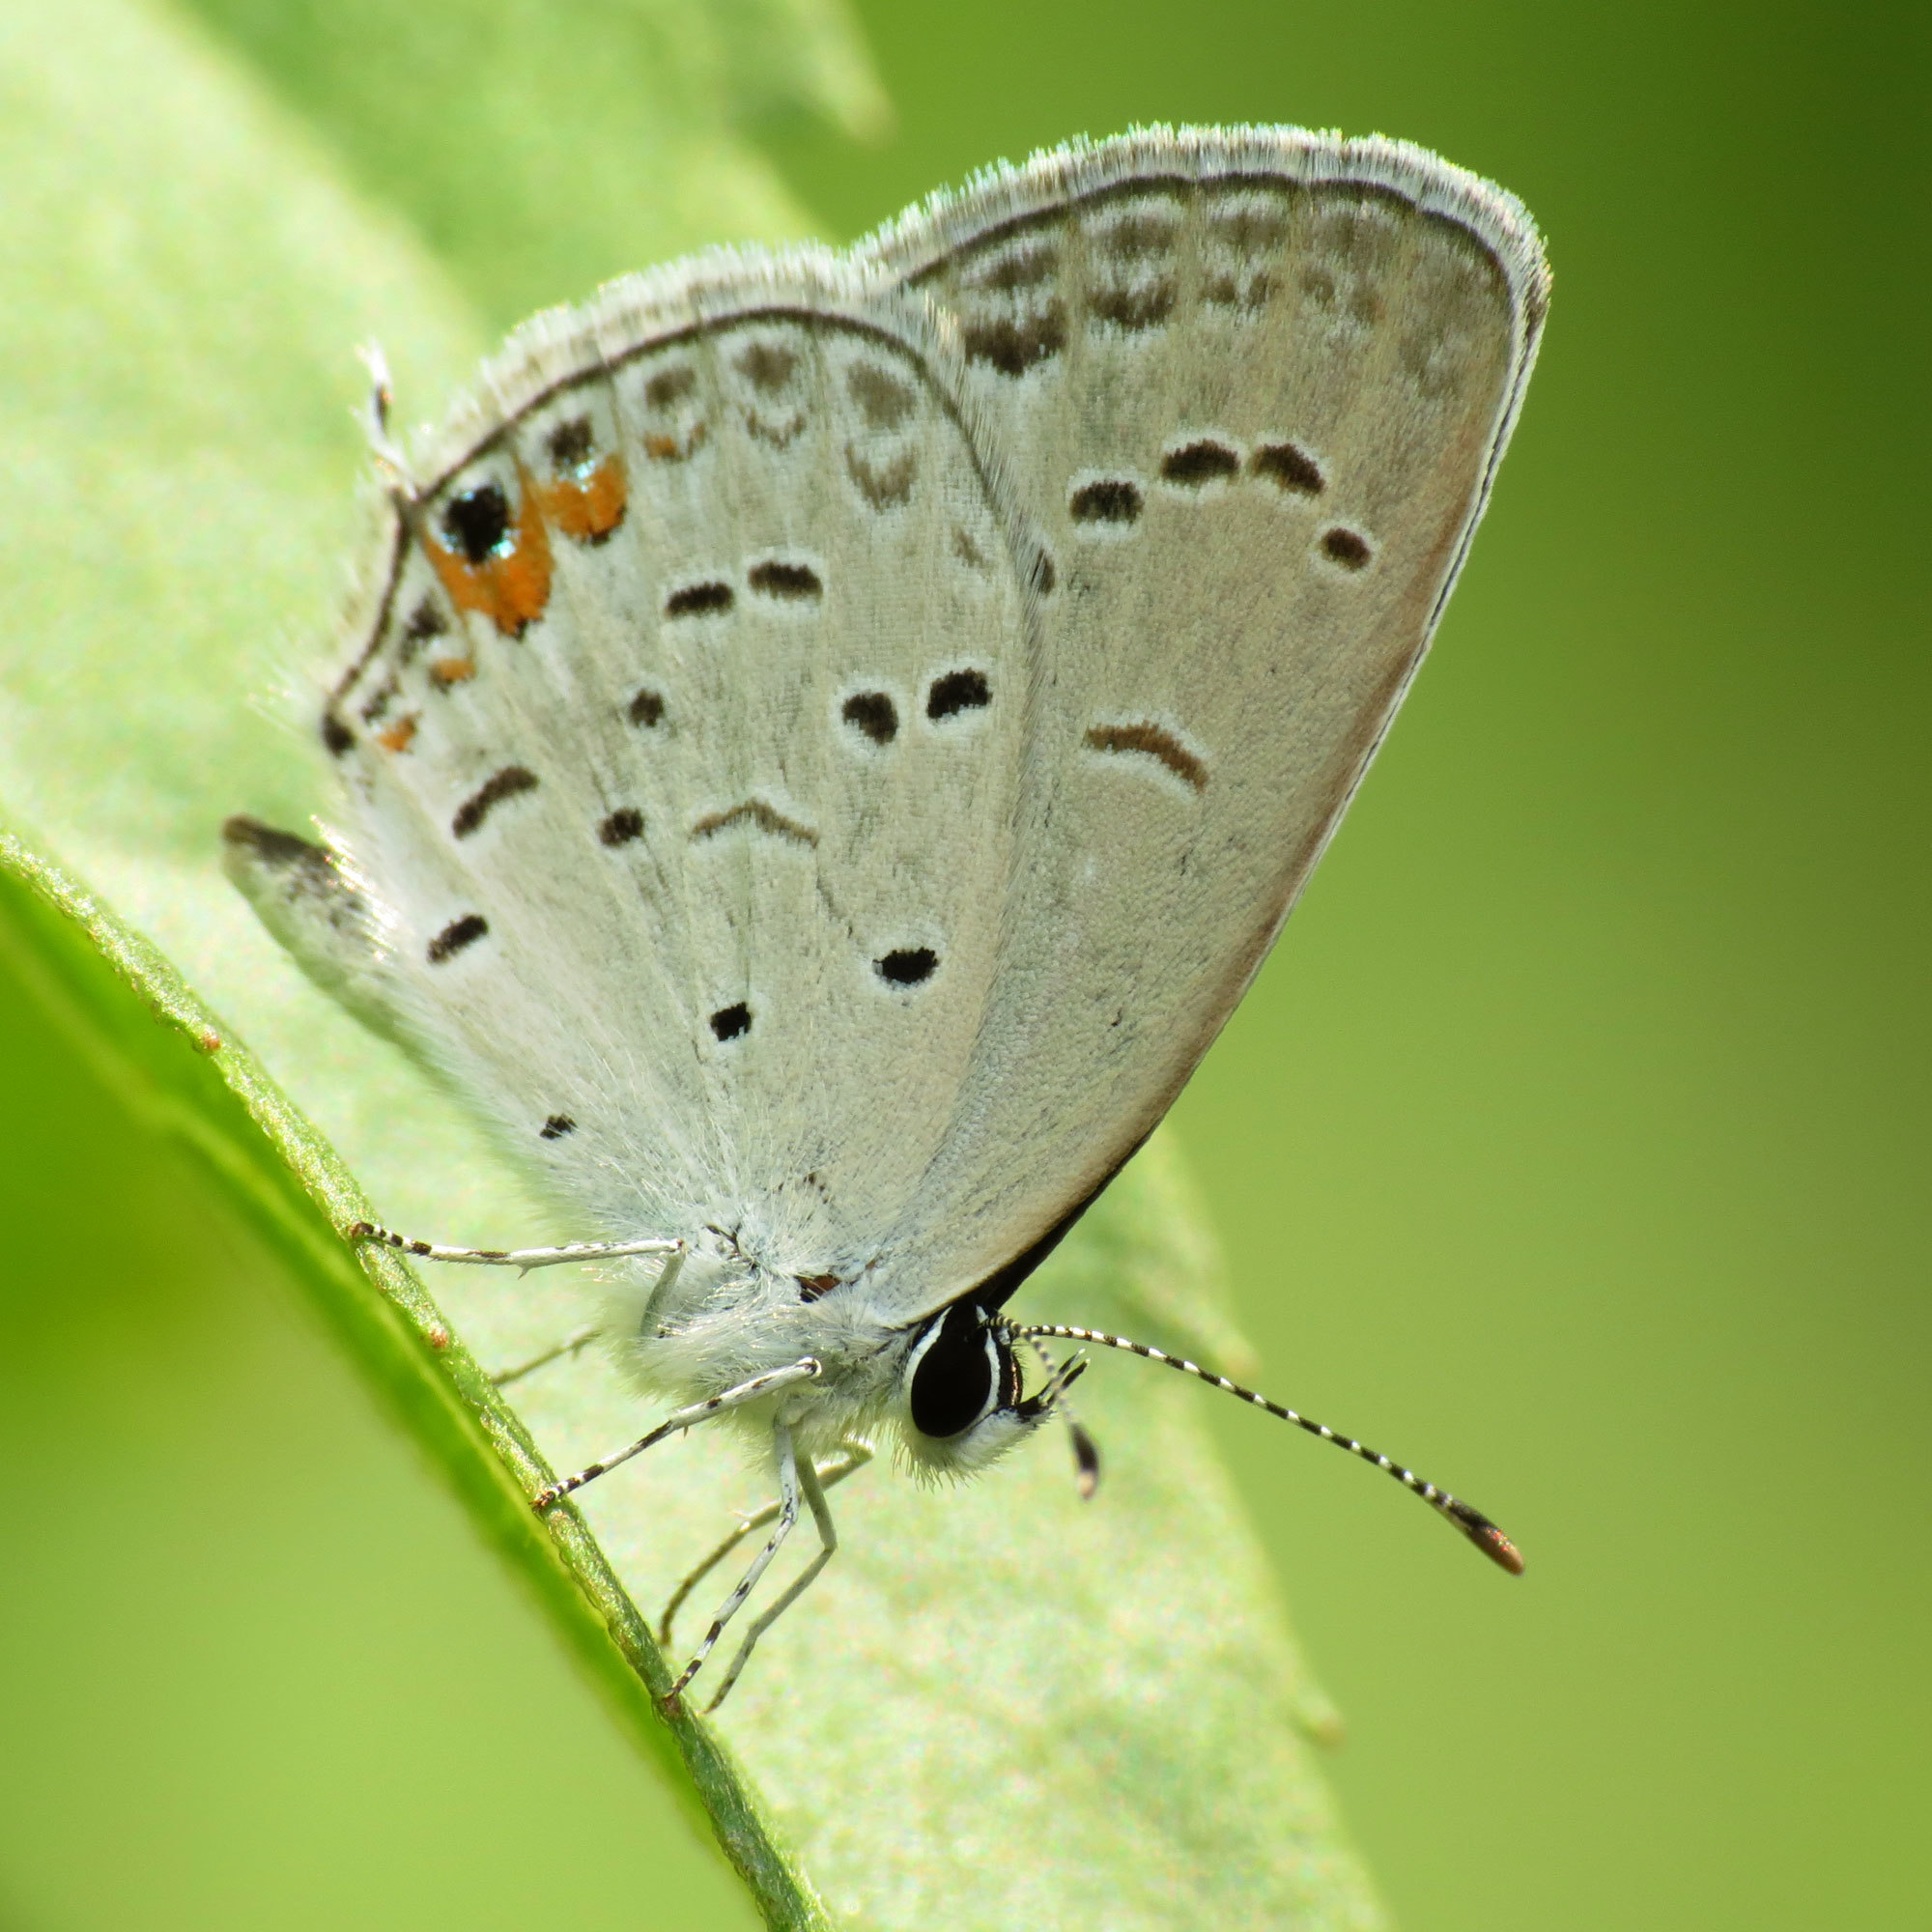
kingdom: Animalia
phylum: Arthropoda
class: Insecta
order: Lepidoptera
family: Lycaenidae
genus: Elkalyce
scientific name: Elkalyce comyntas
